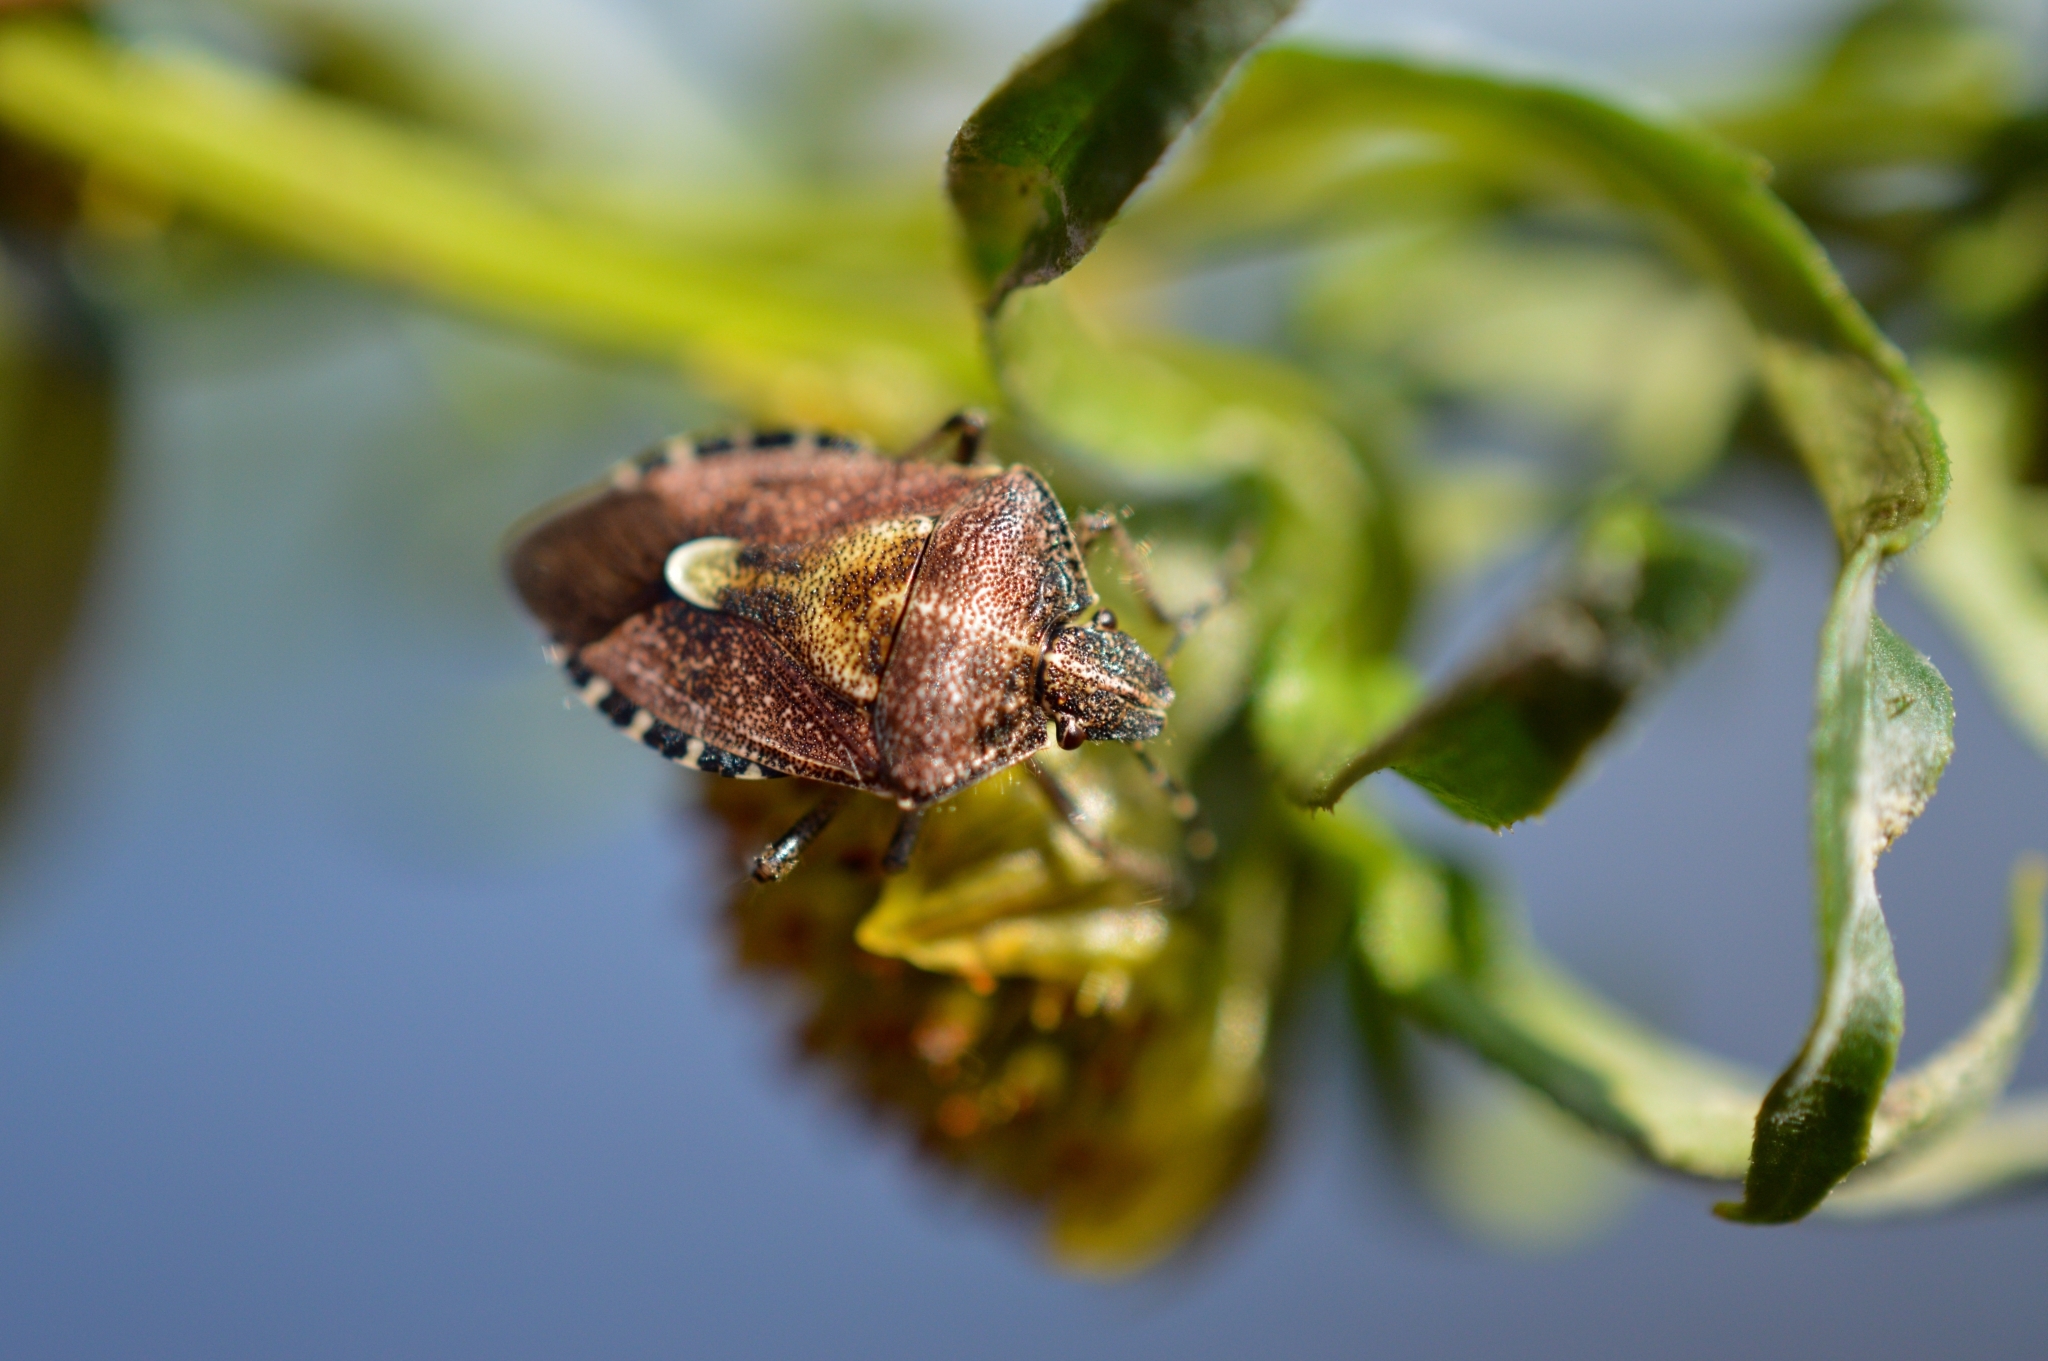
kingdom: Animalia
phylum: Arthropoda
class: Insecta
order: Hemiptera
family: Pentatomidae
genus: Dolycoris
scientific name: Dolycoris baccarum
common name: Sloe bug
